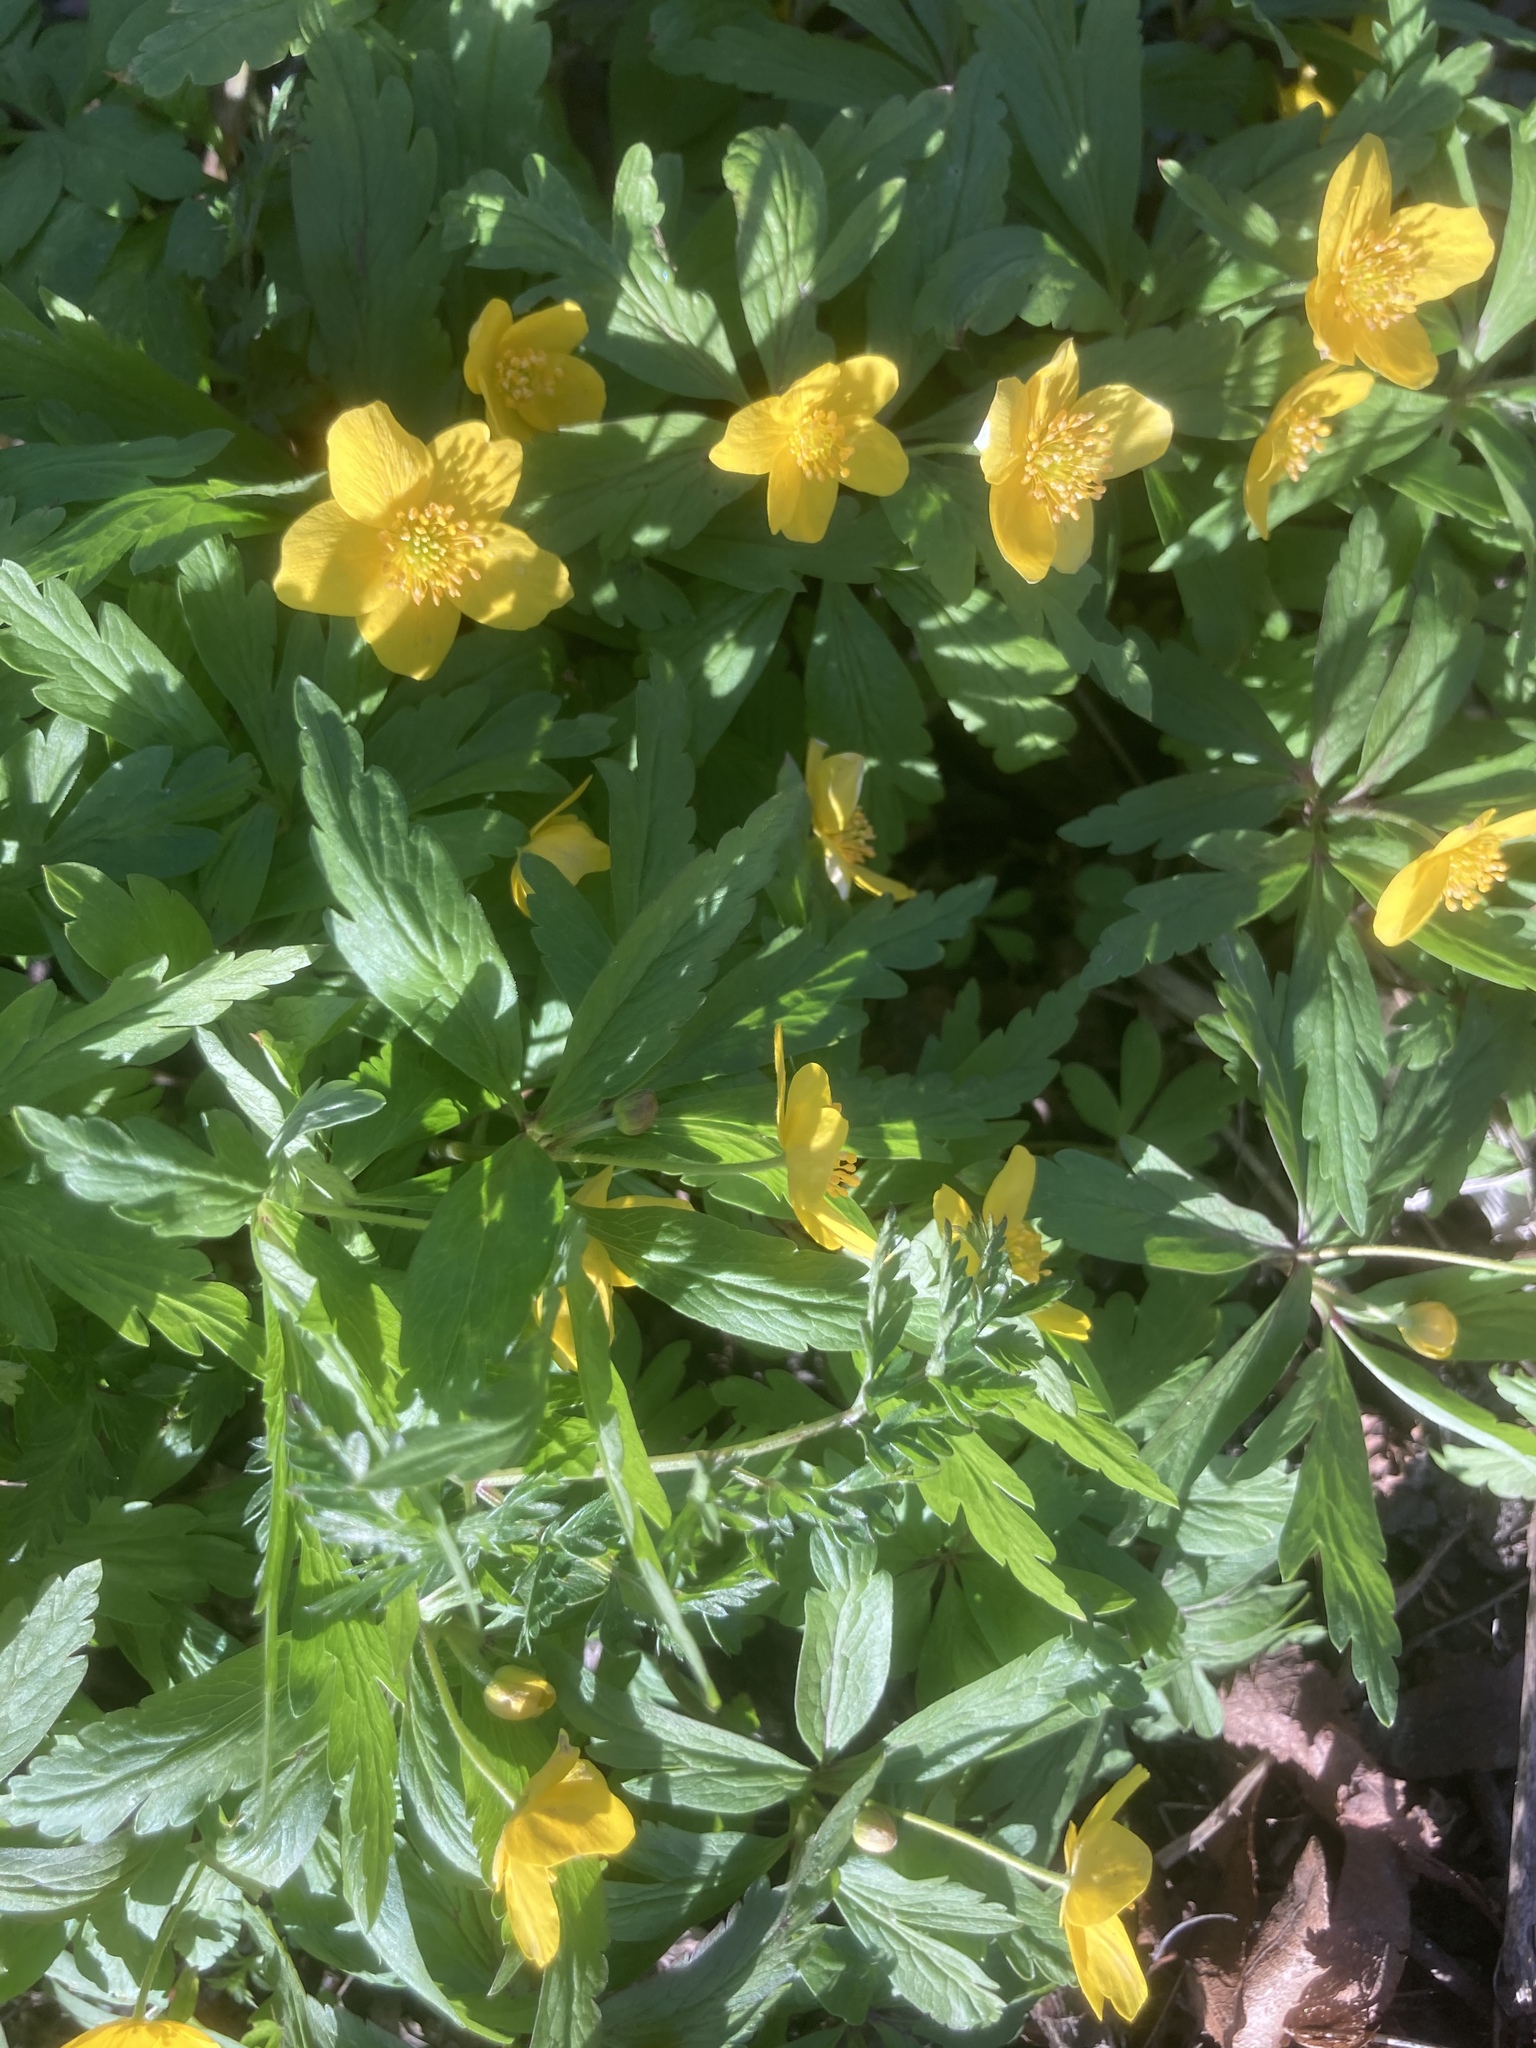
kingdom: Plantae
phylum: Tracheophyta
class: Magnoliopsida
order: Ranunculales
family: Ranunculaceae
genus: Anemone
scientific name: Anemone ranunculoides
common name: Yellow anemone
